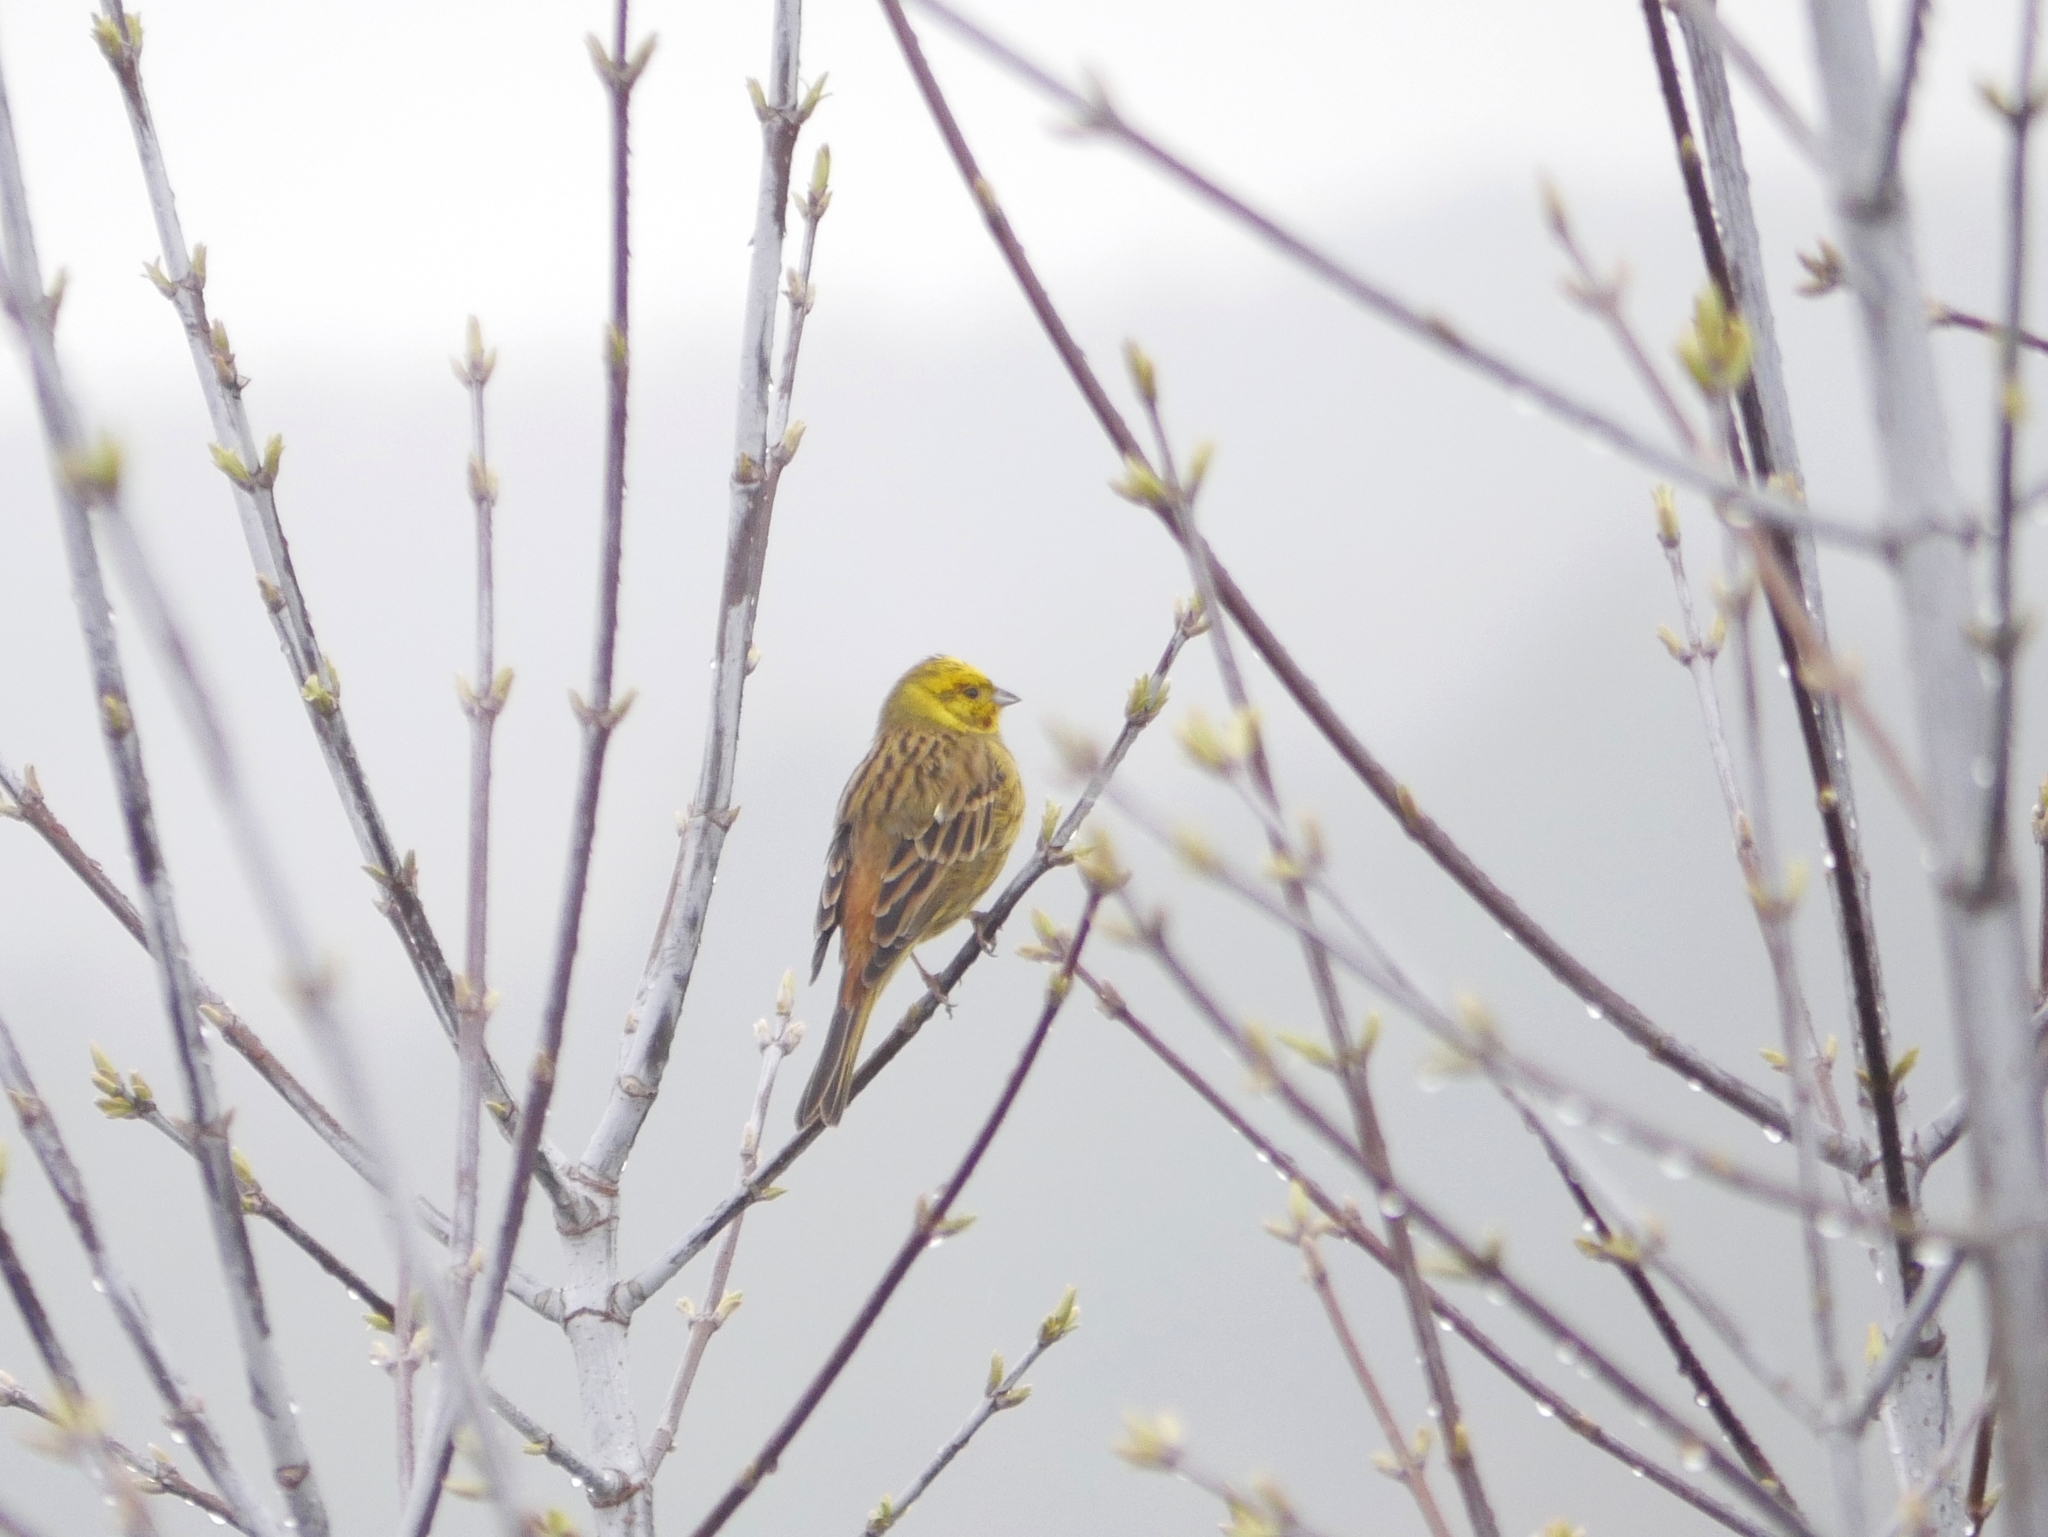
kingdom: Animalia
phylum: Chordata
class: Aves
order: Passeriformes
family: Emberizidae
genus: Emberiza
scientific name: Emberiza citrinella
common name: Yellowhammer
